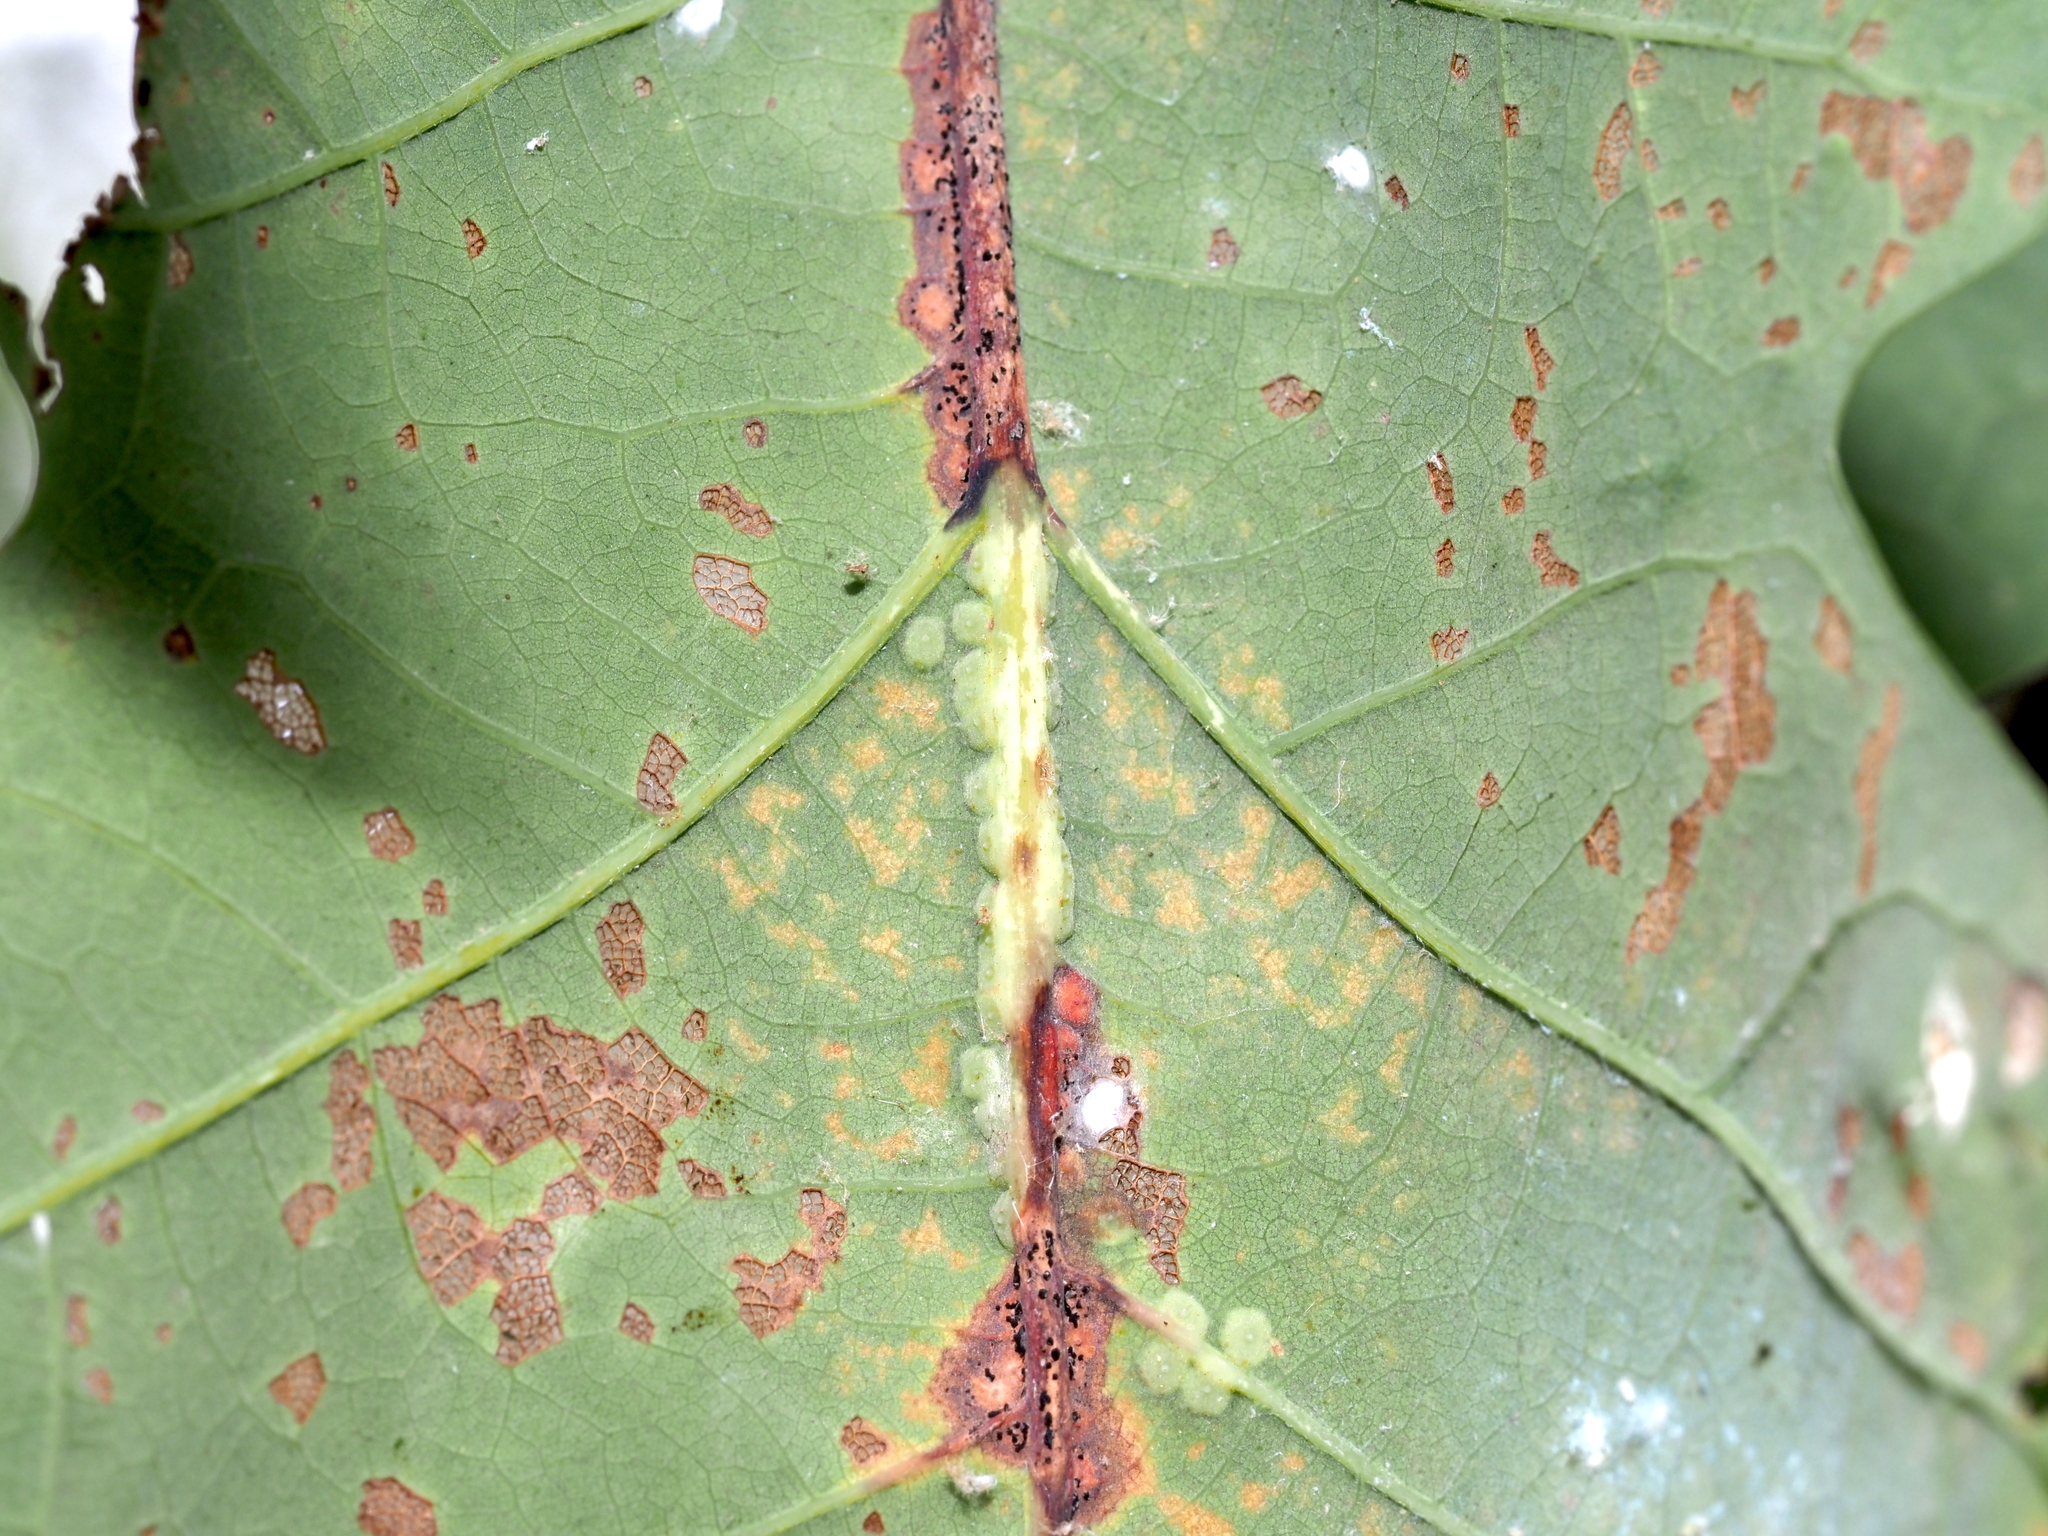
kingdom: Animalia
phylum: Arthropoda
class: Insecta
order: Hymenoptera
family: Cynipidae
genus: Neuroterus
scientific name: Neuroterus niger
